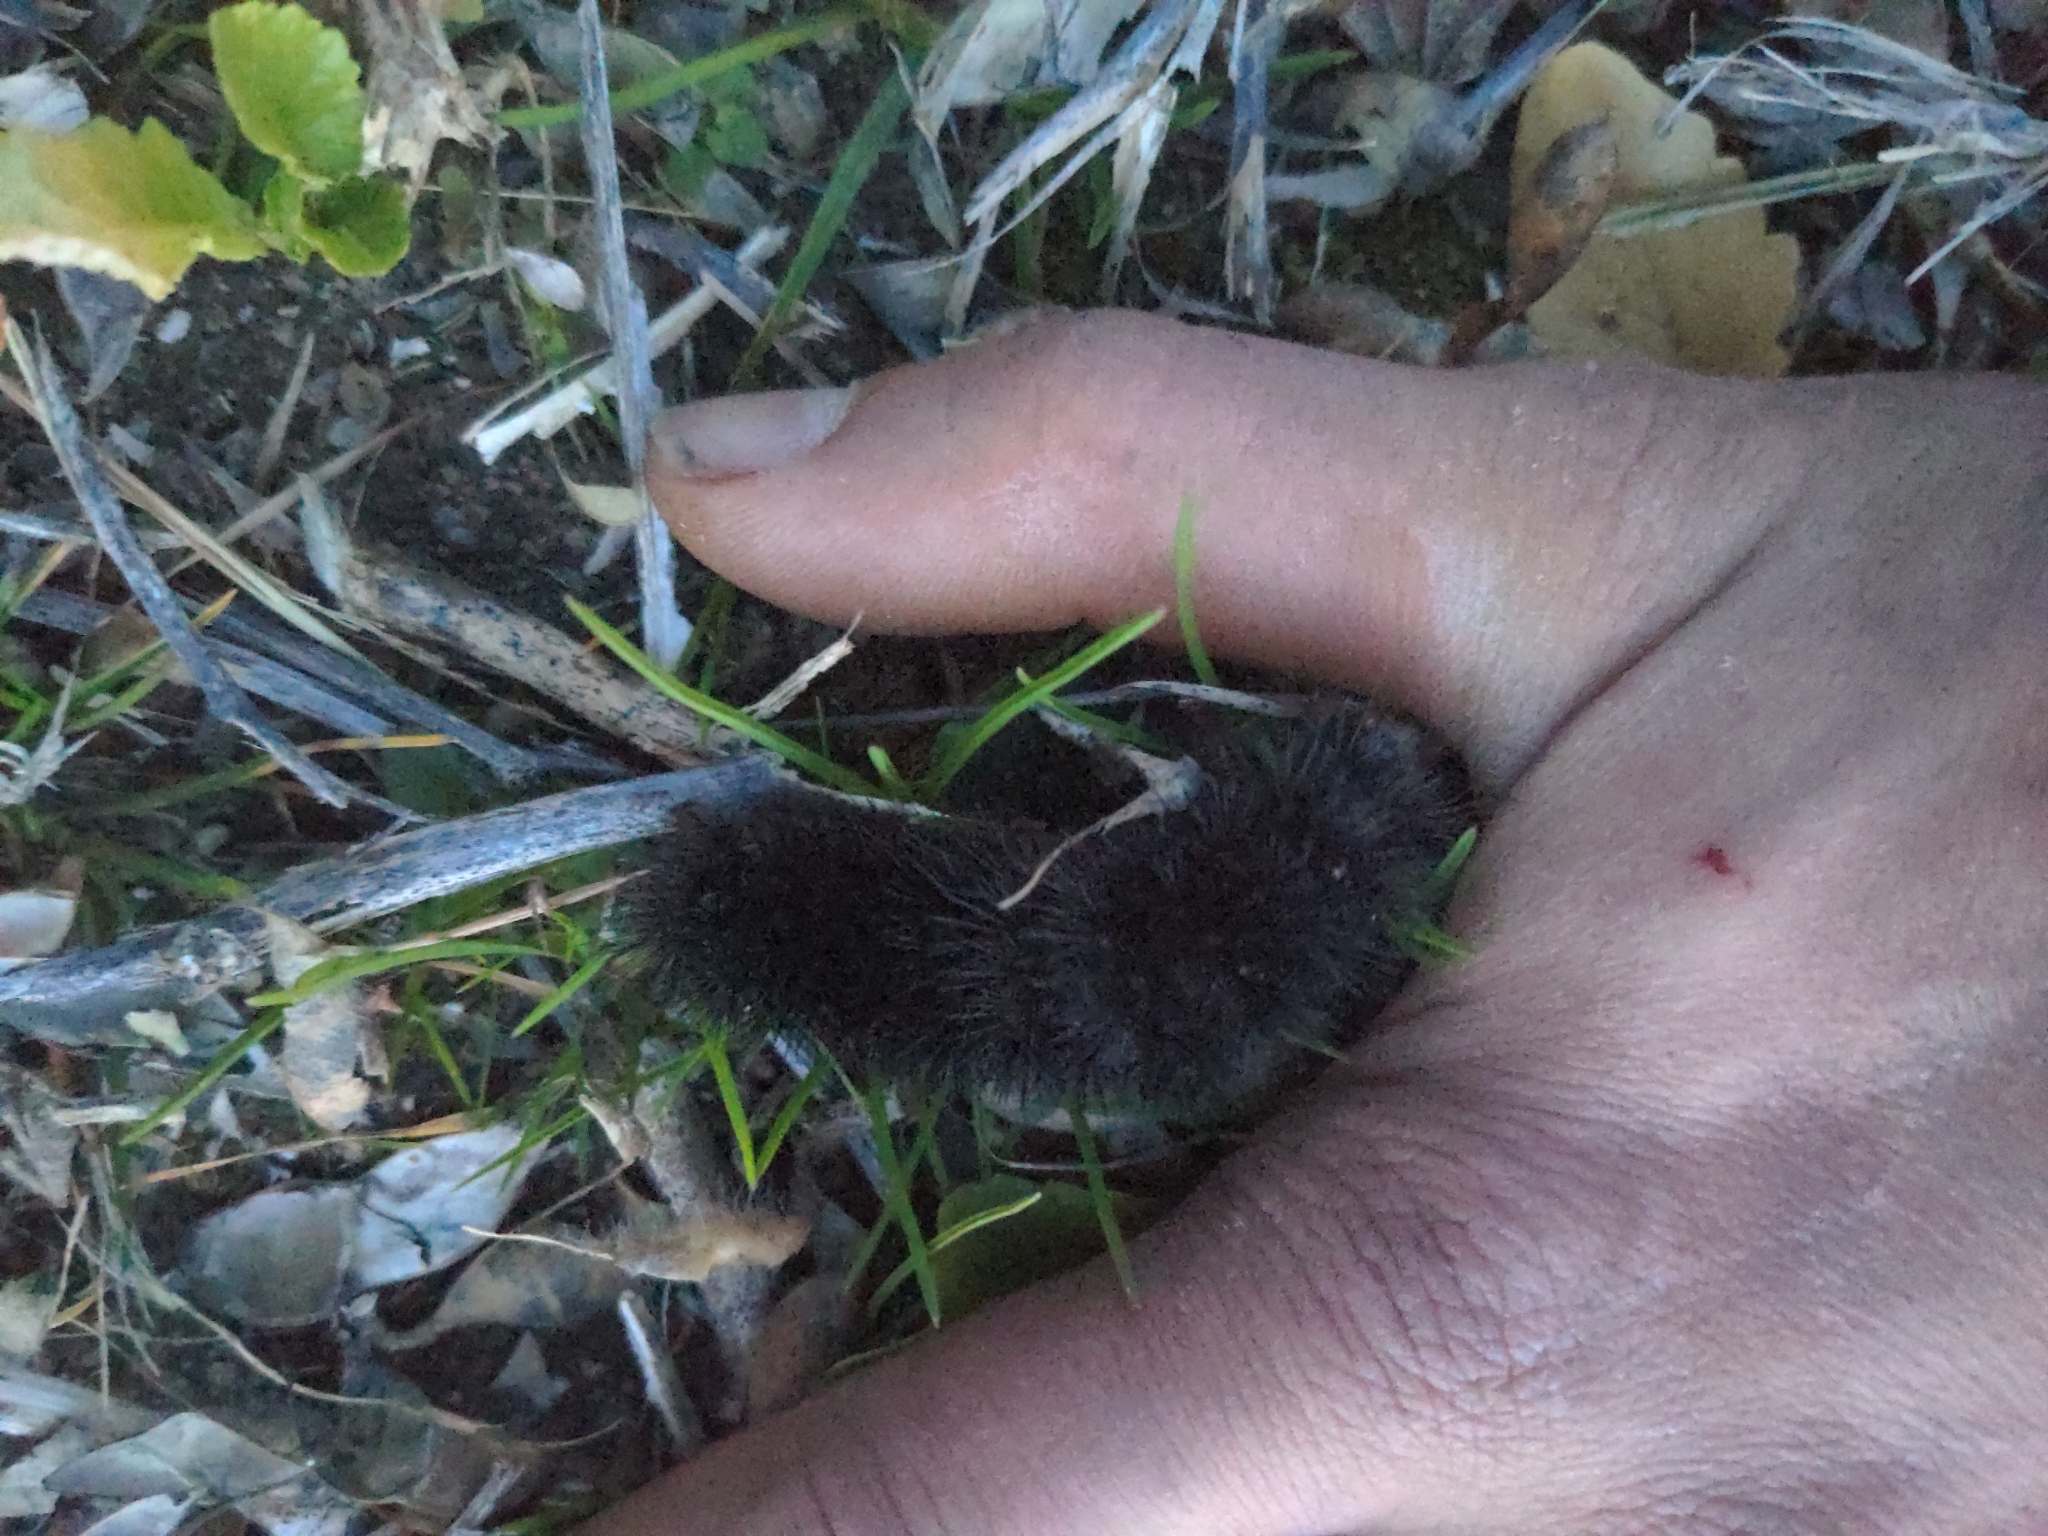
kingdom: Animalia
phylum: Arthropoda
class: Insecta
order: Lepidoptera
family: Erebidae
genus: Hypercompe
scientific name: Hypercompe scribonia
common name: Giant leopard moth
